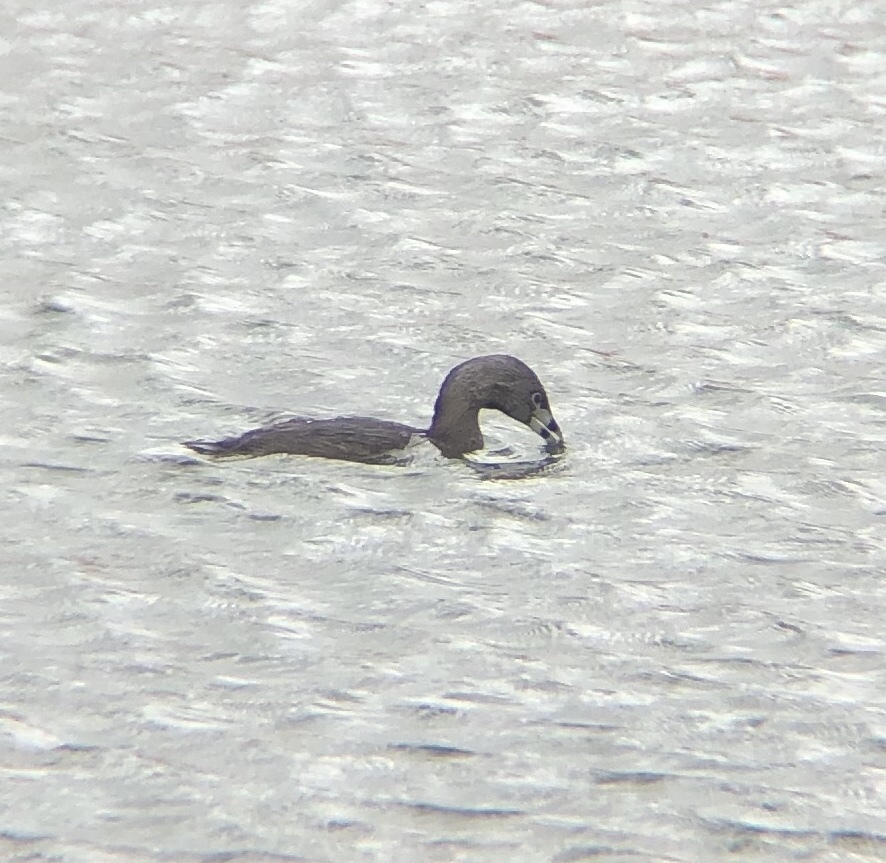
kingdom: Animalia
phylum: Chordata
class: Aves
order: Podicipediformes
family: Podicipedidae
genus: Podilymbus
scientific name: Podilymbus podiceps
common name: Pied-billed grebe
